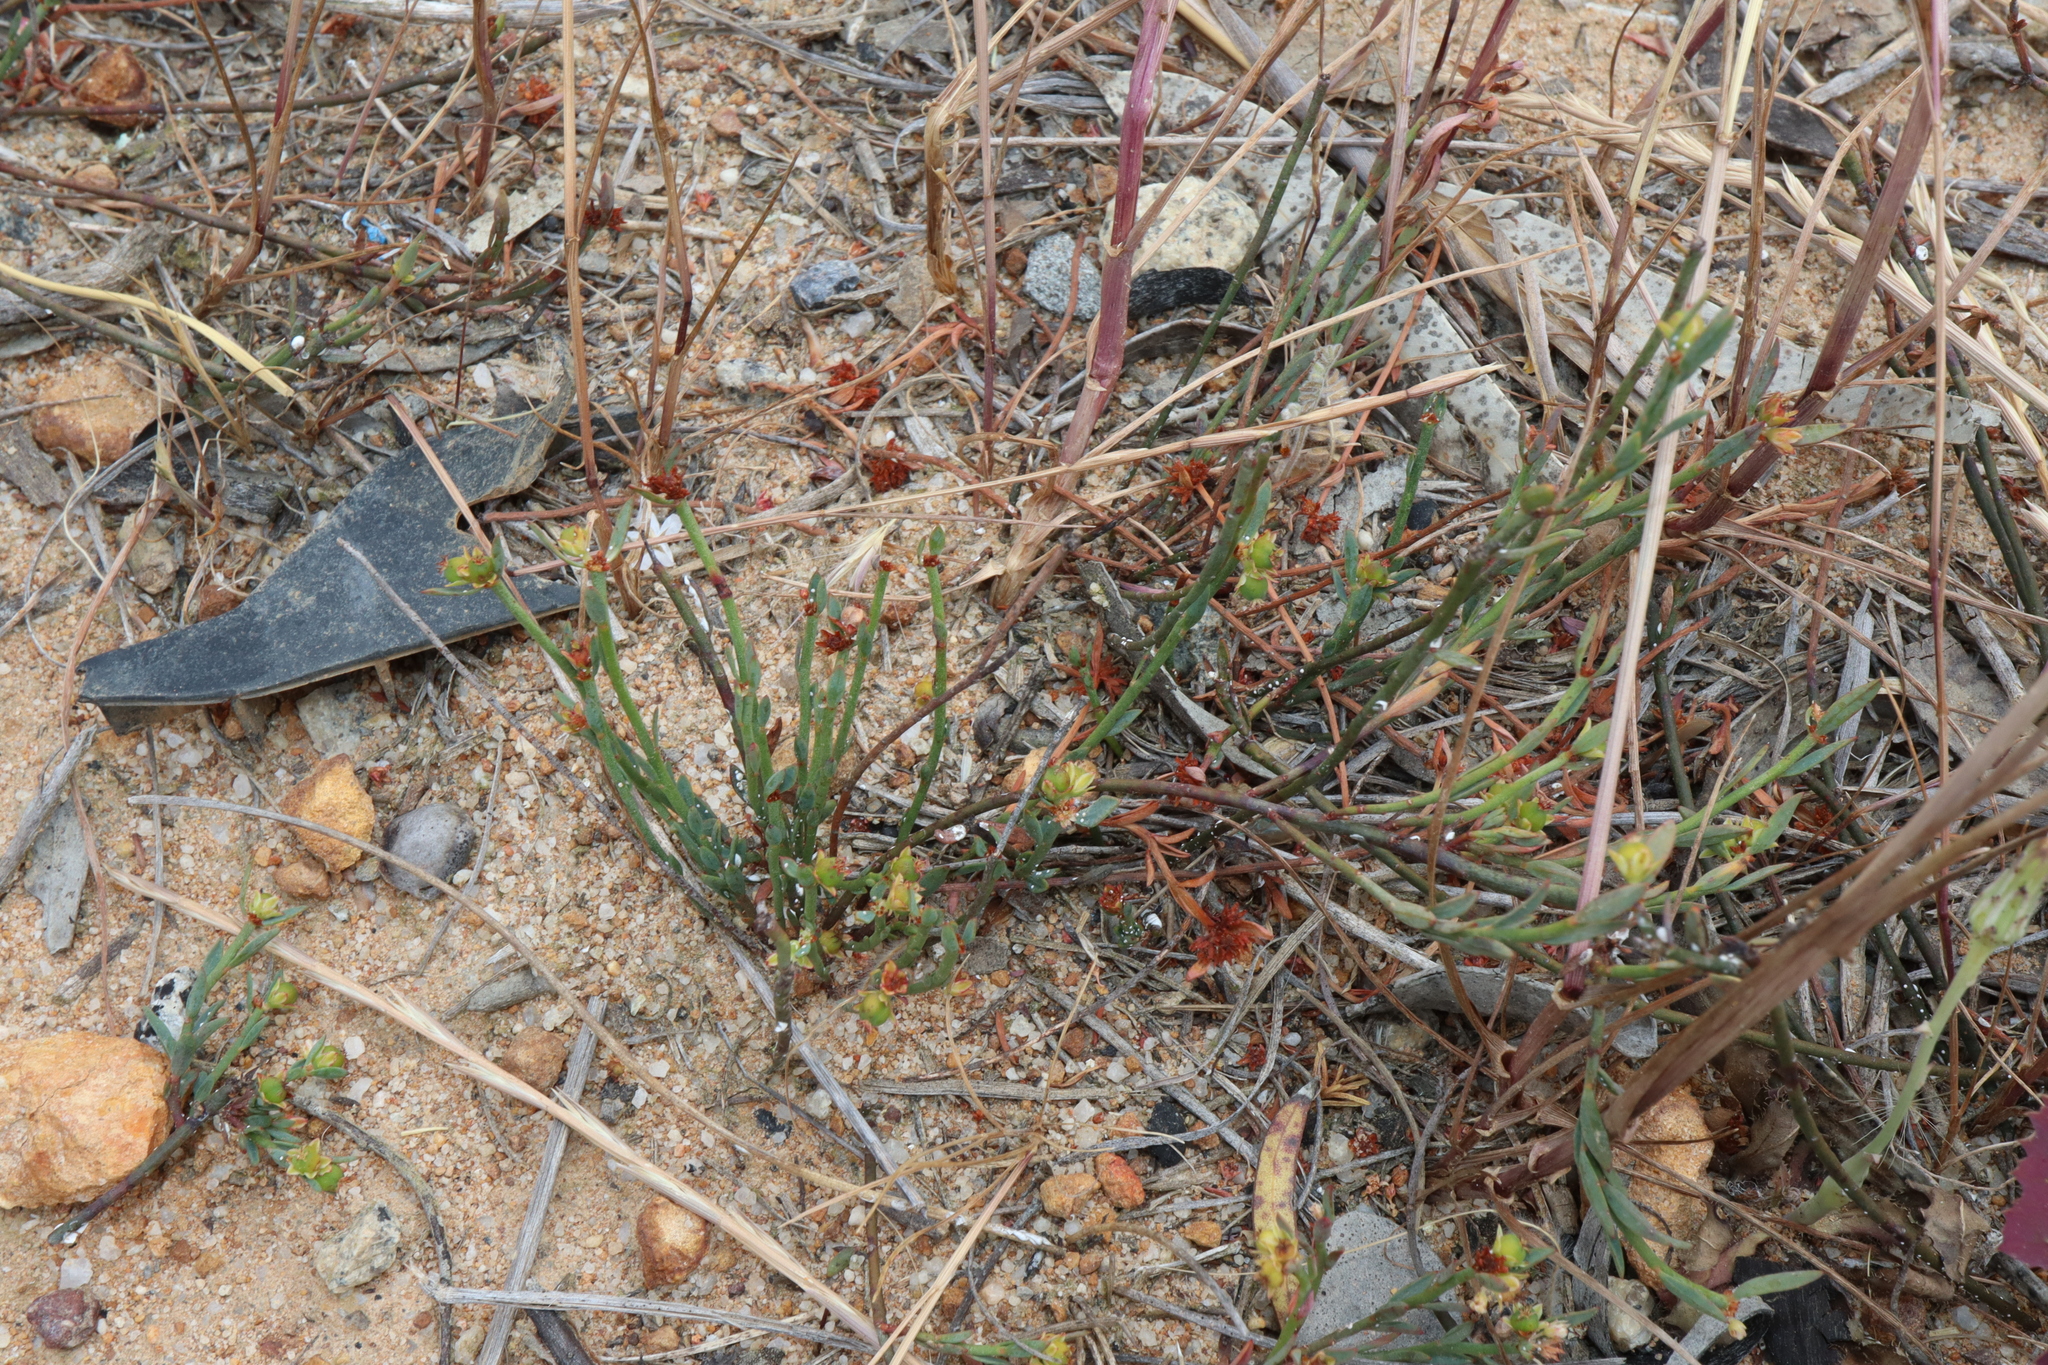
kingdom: Plantae
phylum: Tracheophyta
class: Magnoliopsida
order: Malpighiales
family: Euphorbiaceae
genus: Monotaxis
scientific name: Monotaxis paxii
